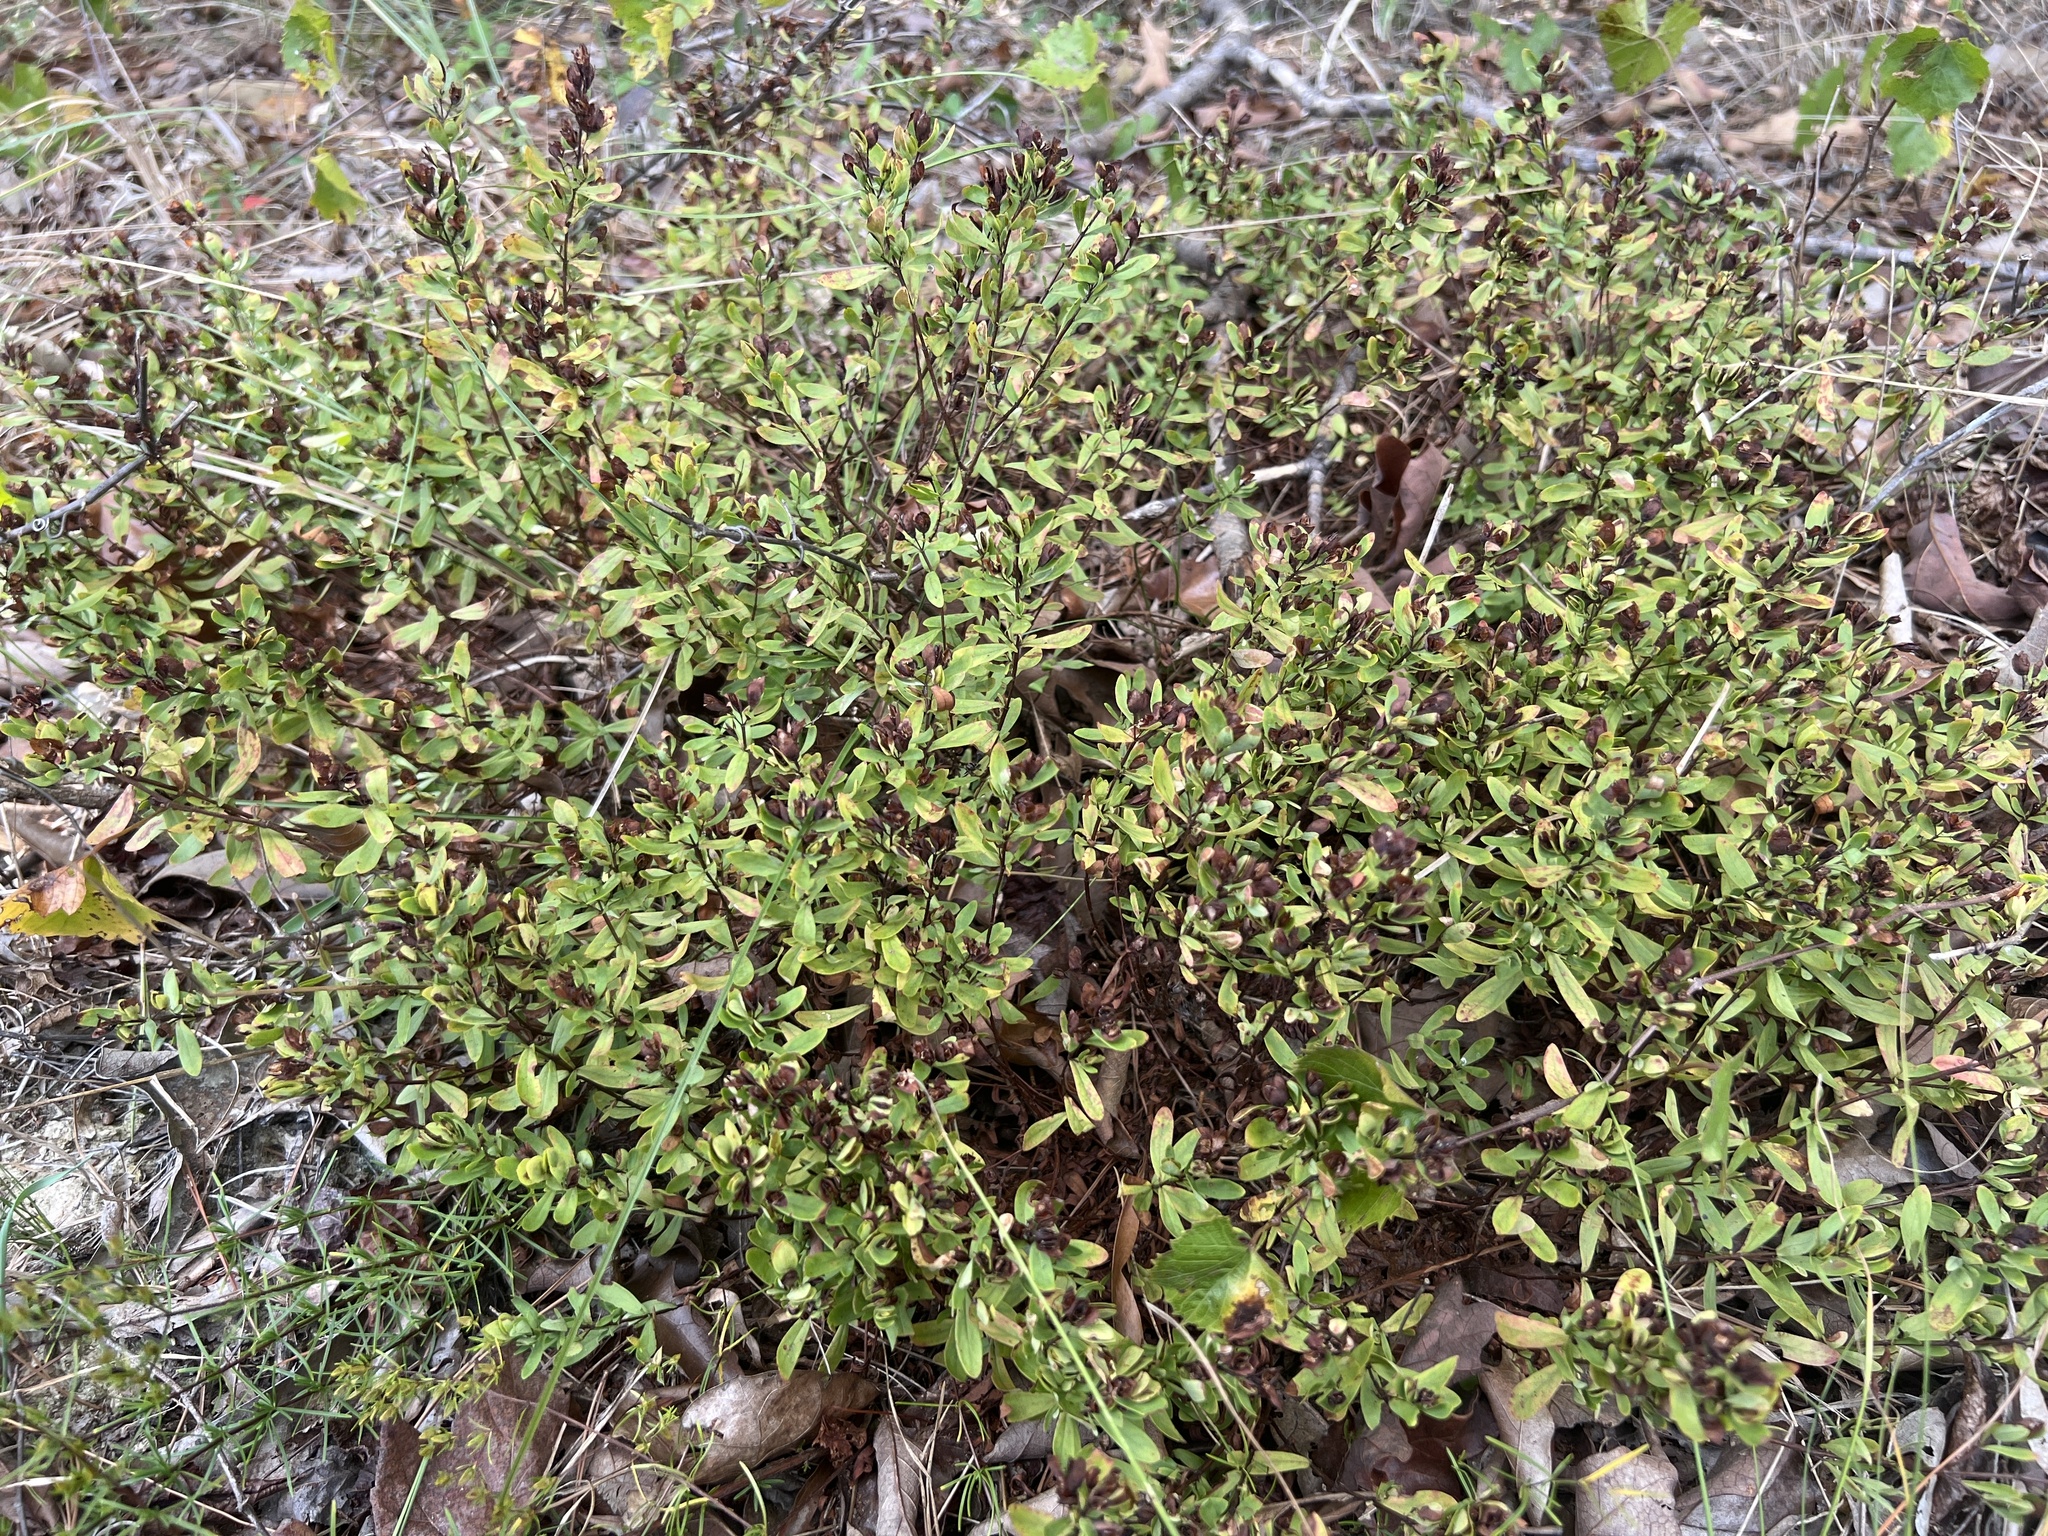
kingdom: Plantae
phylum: Tracheophyta
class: Magnoliopsida
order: Malpighiales
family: Hypericaceae
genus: Hypericum
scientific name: Hypericum hypericoides
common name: St. andrew's cross
